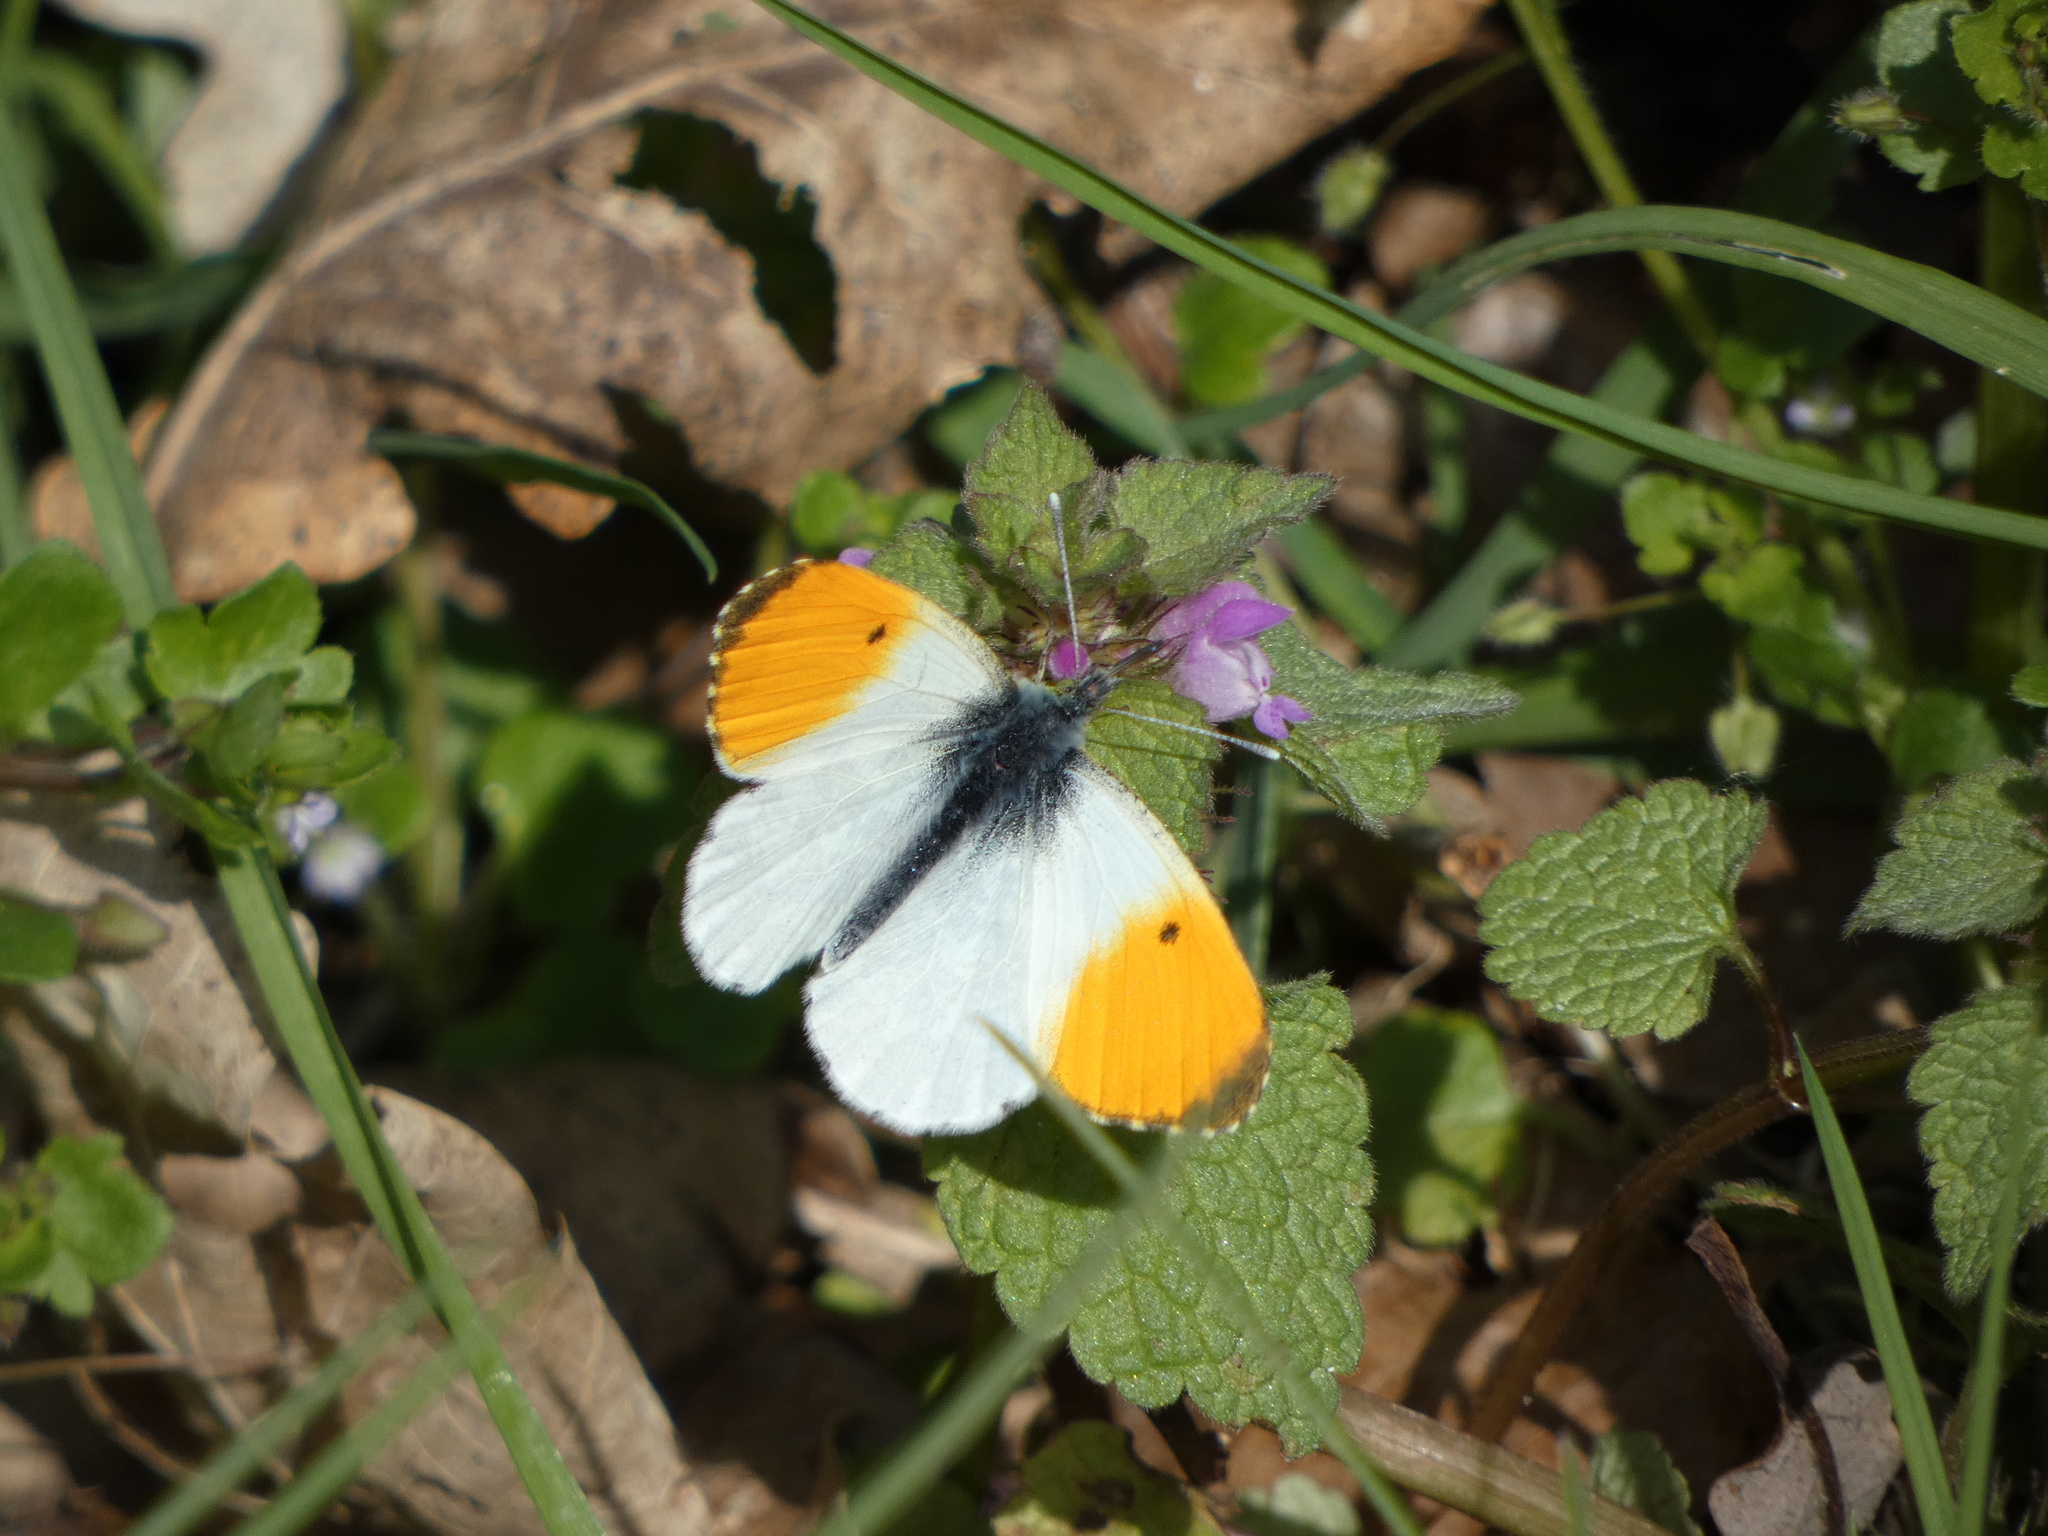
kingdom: Animalia
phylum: Arthropoda
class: Insecta
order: Lepidoptera
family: Pieridae
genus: Anthocharis
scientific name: Anthocharis cardamines
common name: Orange-tip
